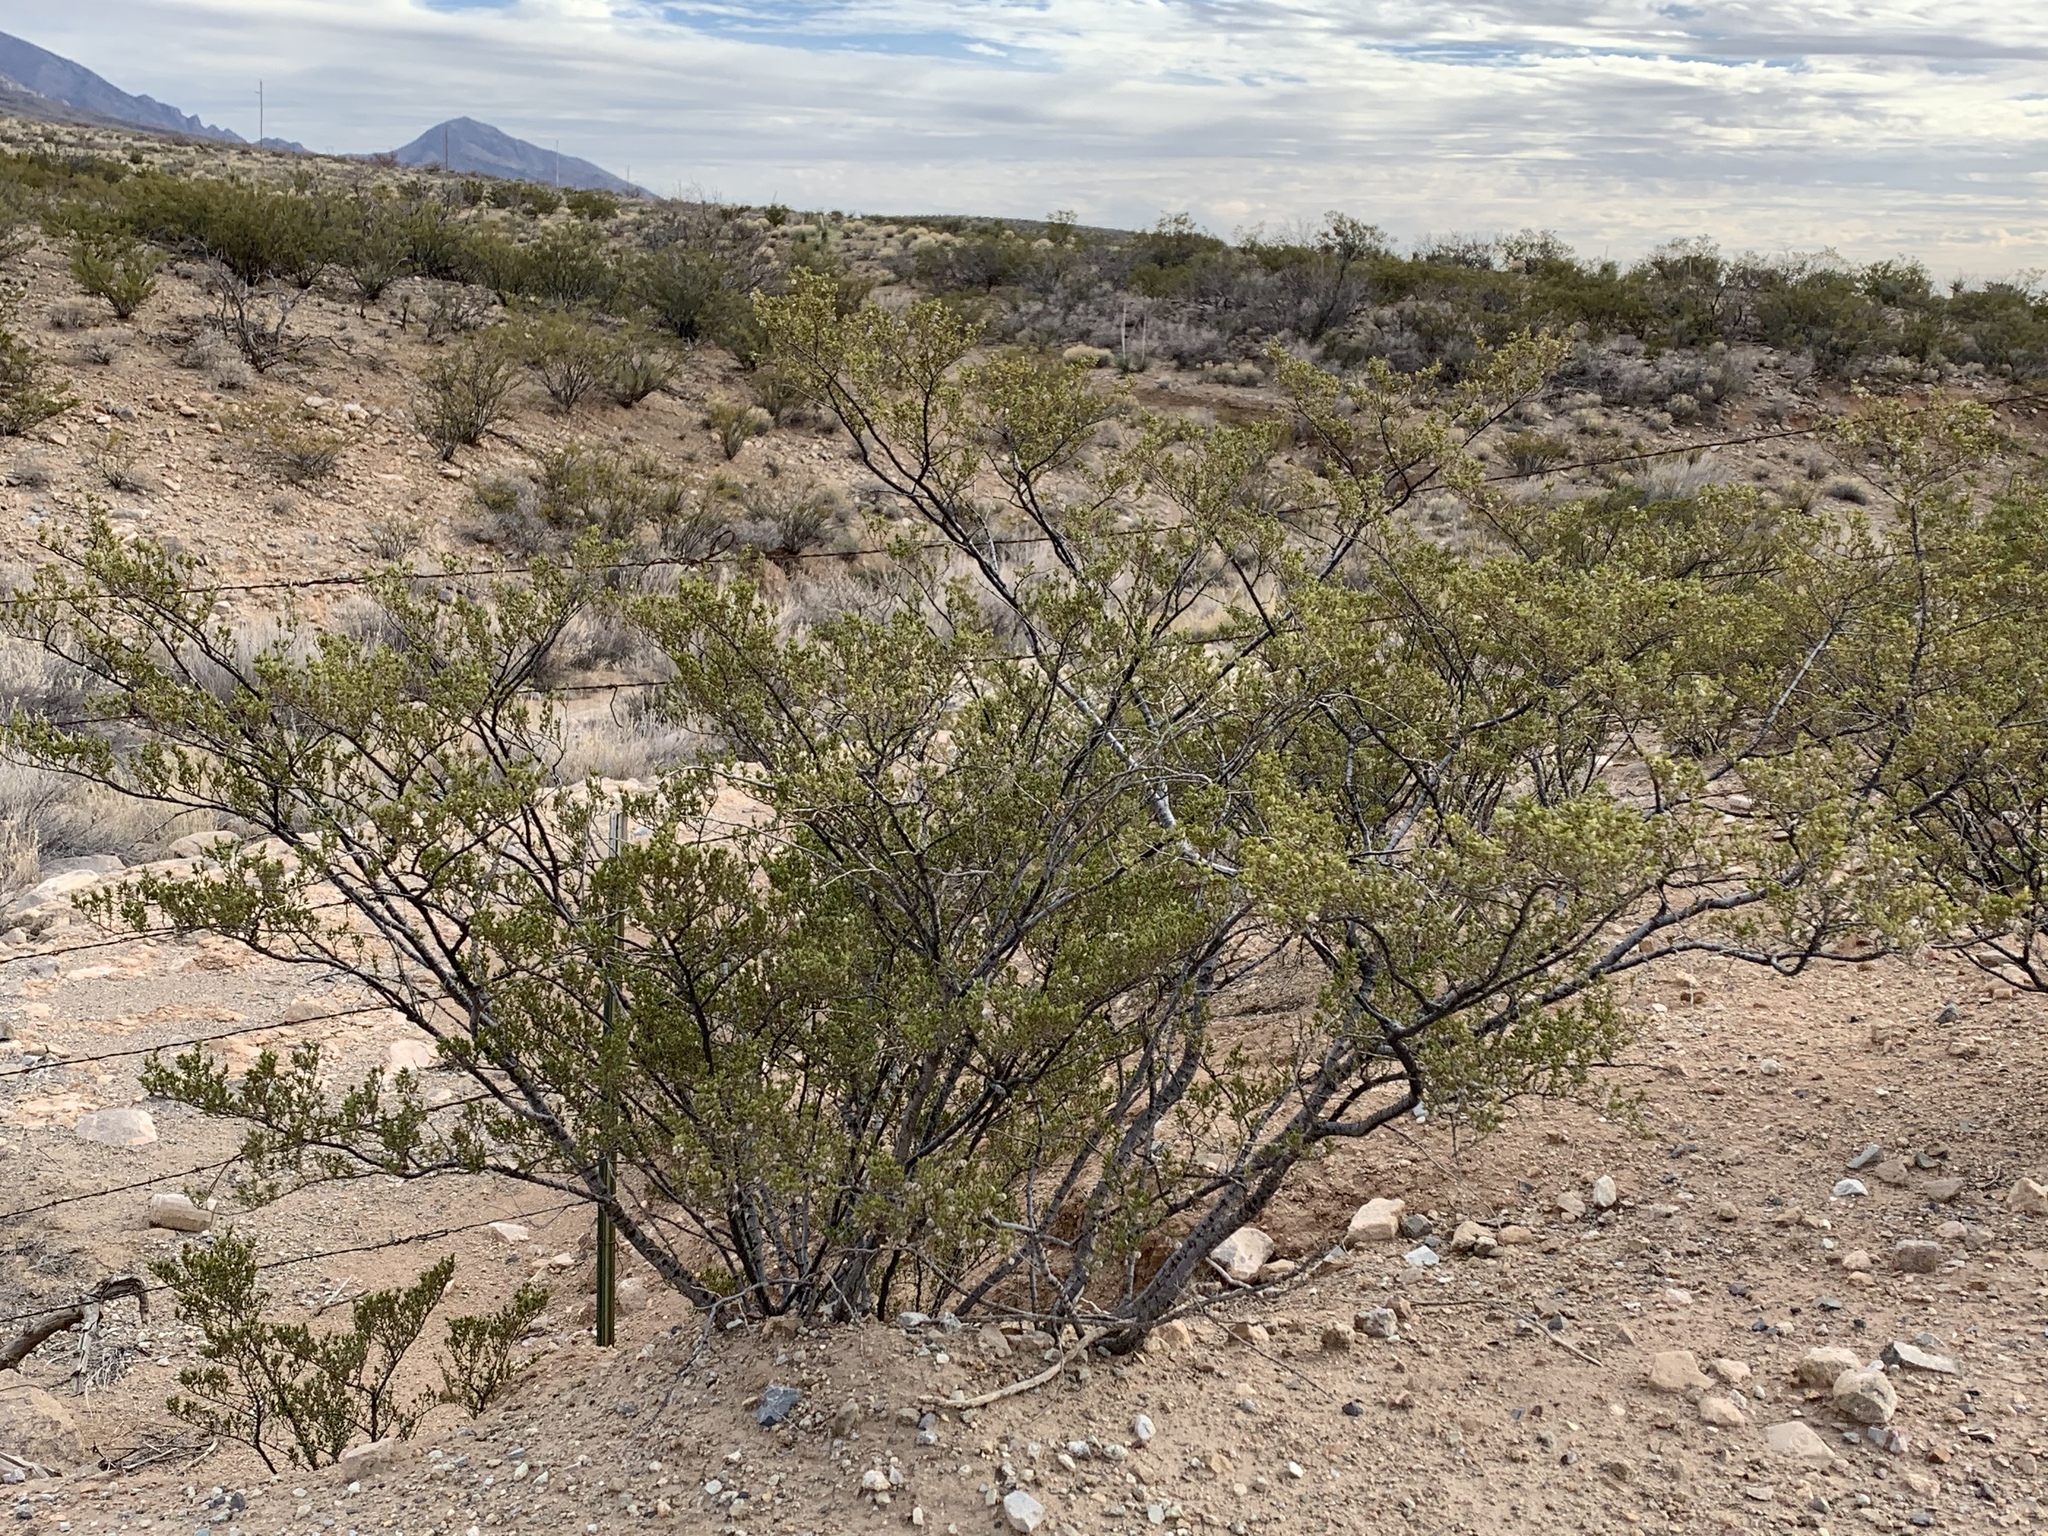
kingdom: Plantae
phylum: Tracheophyta
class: Magnoliopsida
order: Zygophyllales
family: Zygophyllaceae
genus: Larrea
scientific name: Larrea tridentata
